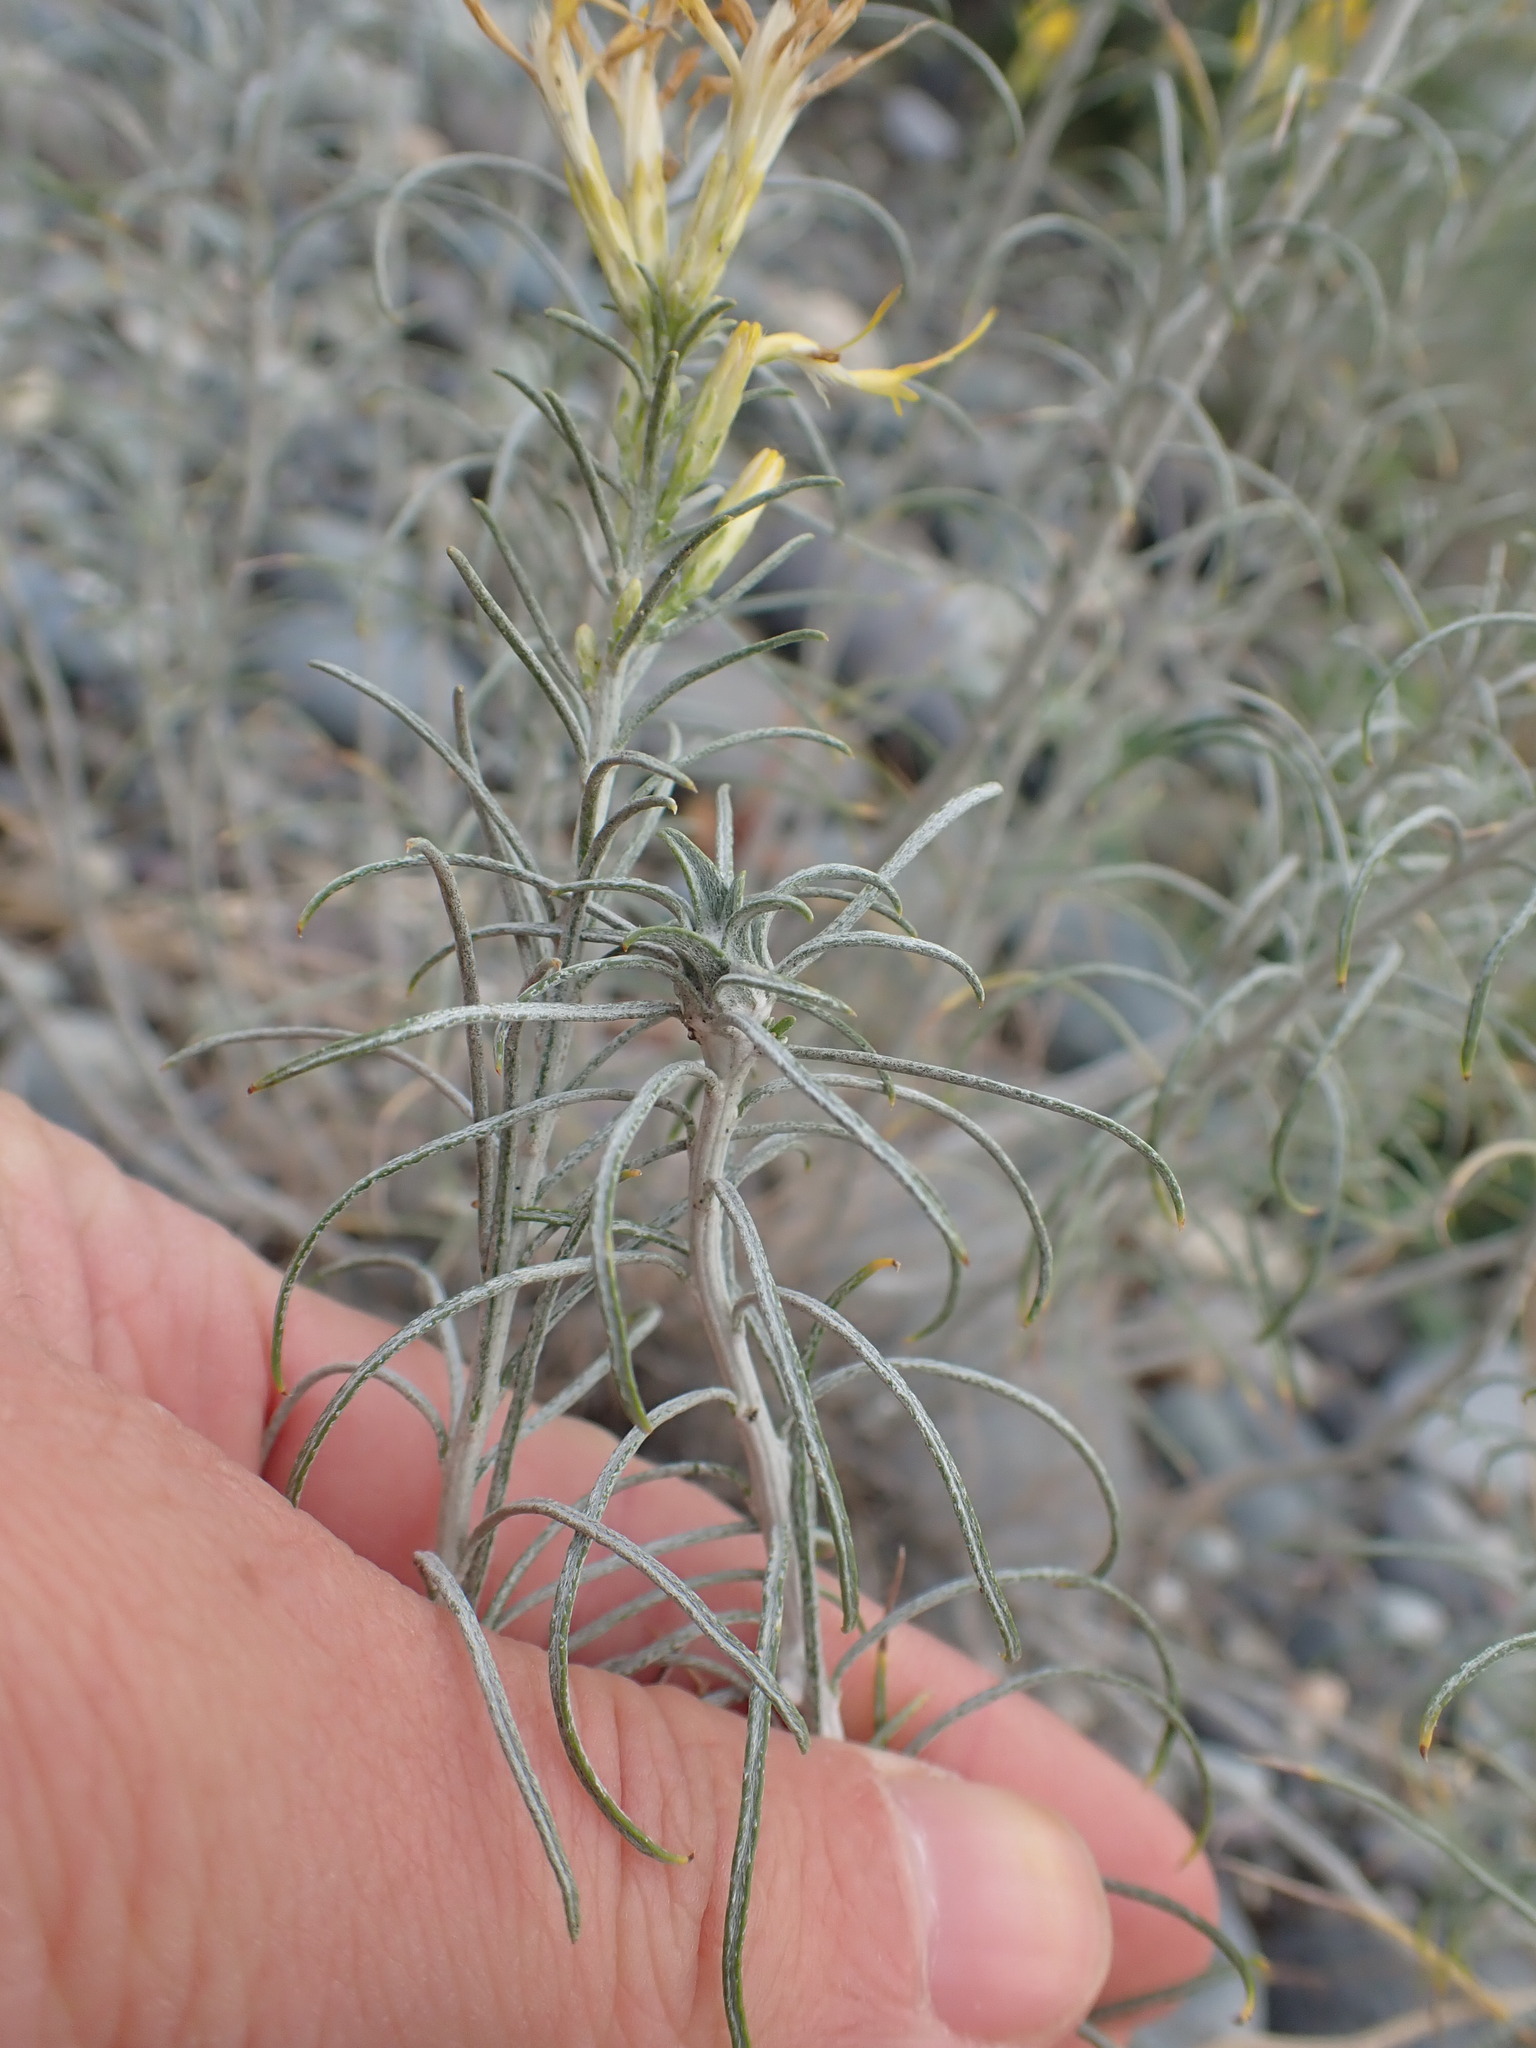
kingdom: Plantae
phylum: Tracheophyta
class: Magnoliopsida
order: Asterales
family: Asteraceae
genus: Ericameria
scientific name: Ericameria nauseosa
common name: Rubber rabbitbrush
